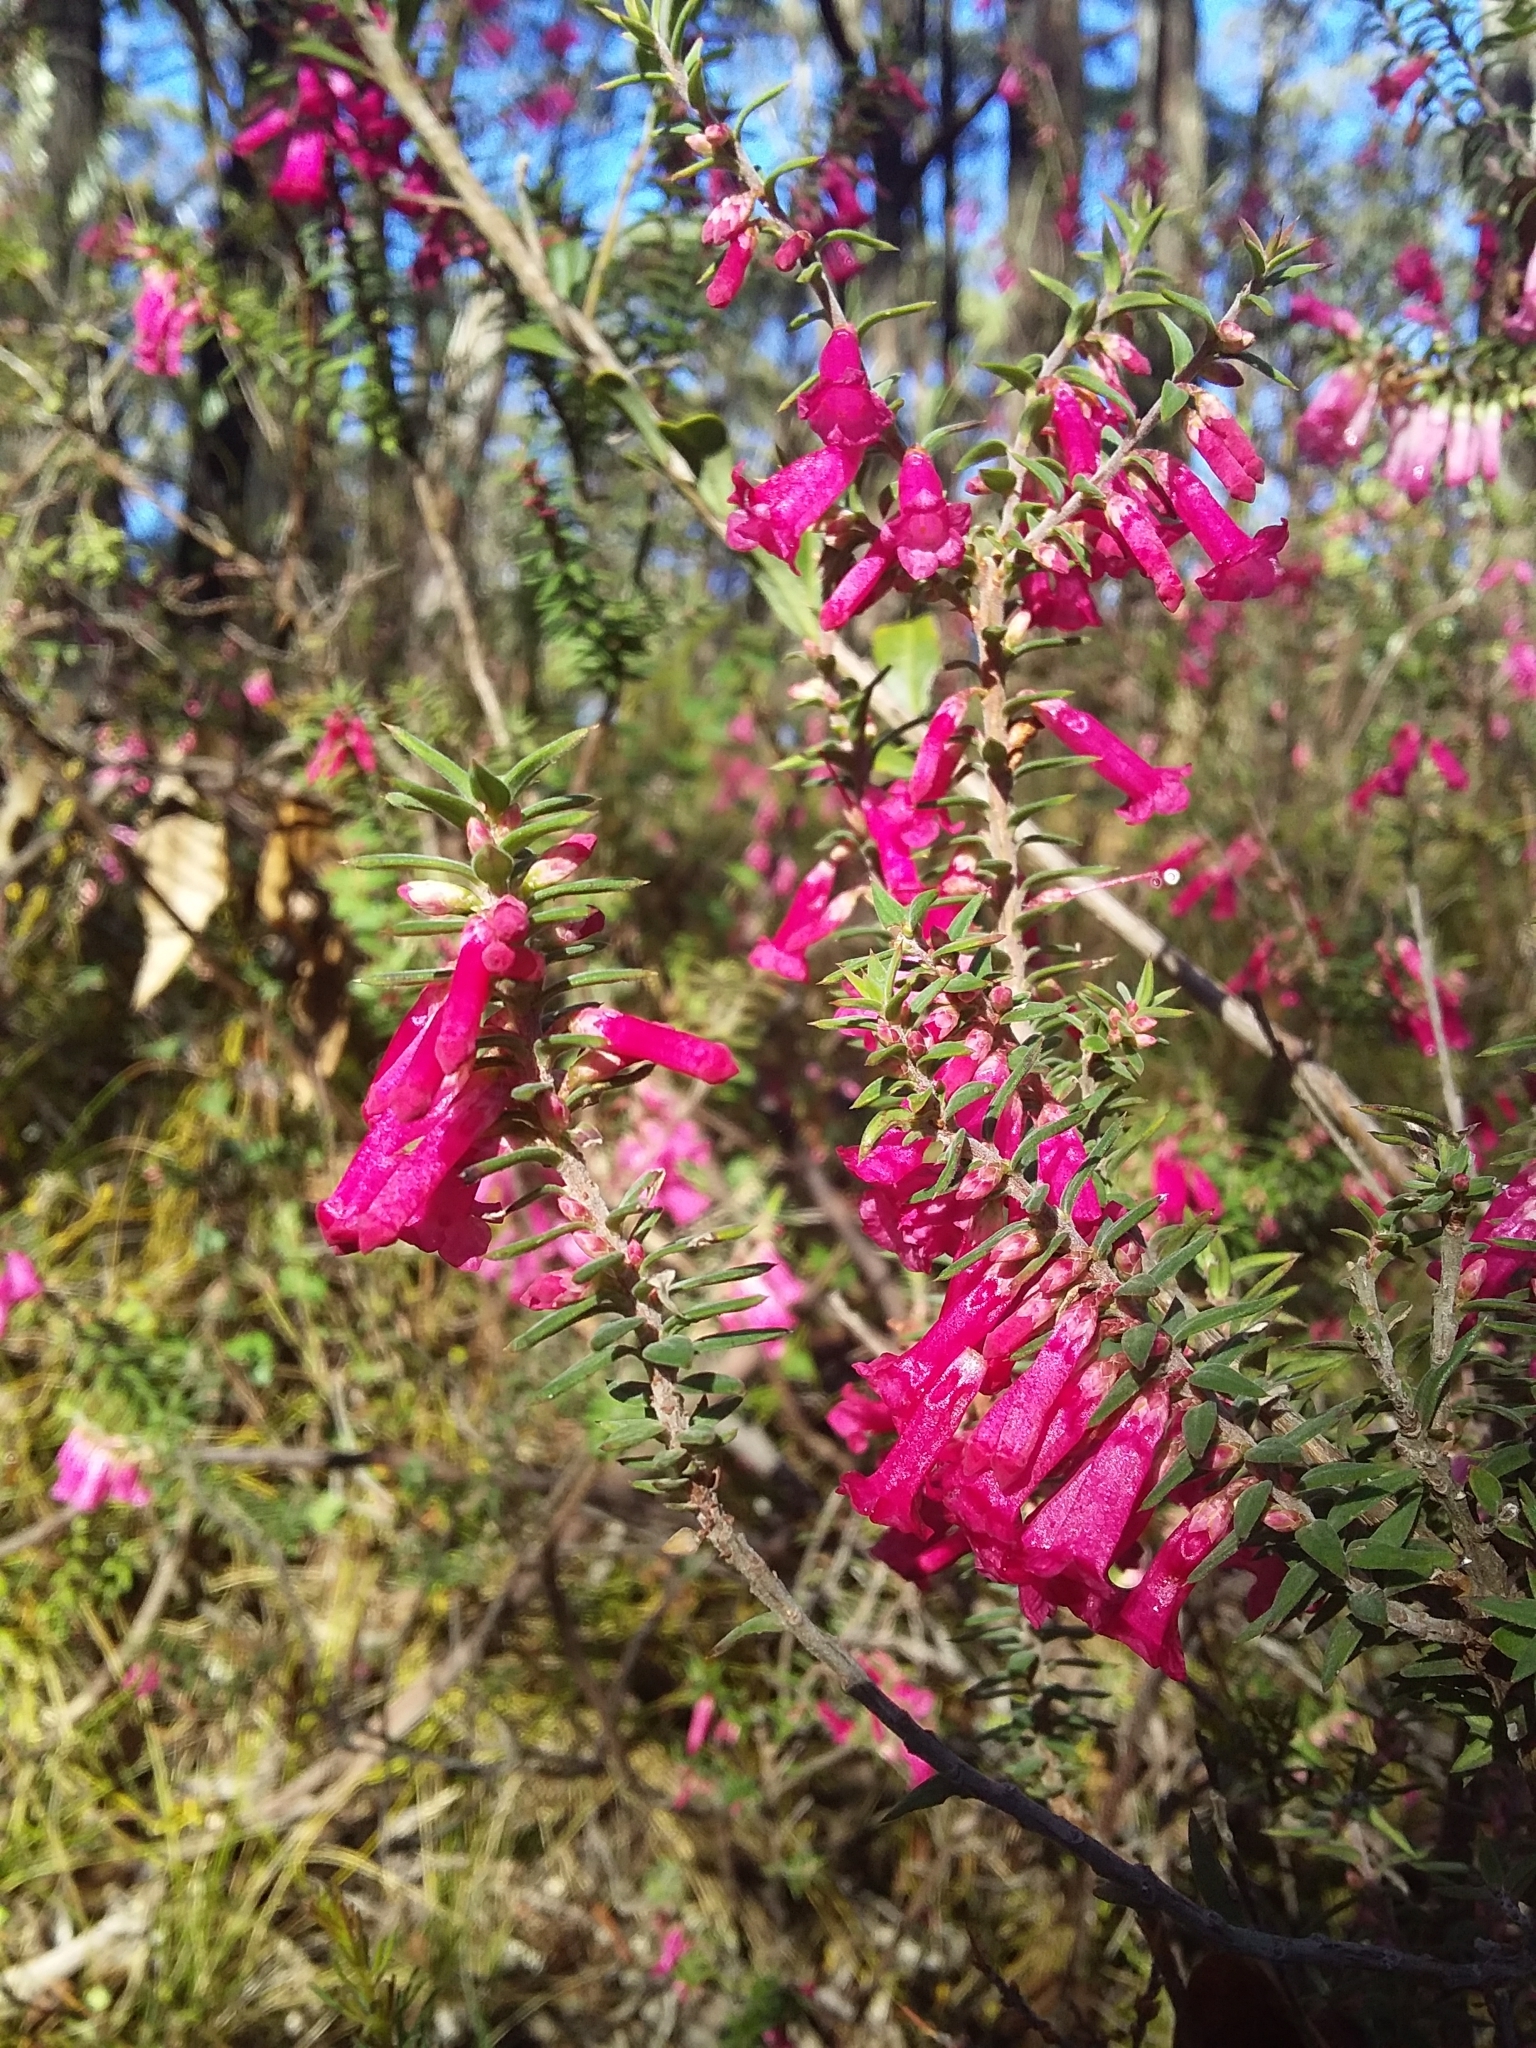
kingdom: Plantae
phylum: Tracheophyta
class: Magnoliopsida
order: Ericales
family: Ericaceae
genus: Epacris
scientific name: Epacris impressa
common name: Common-heath
